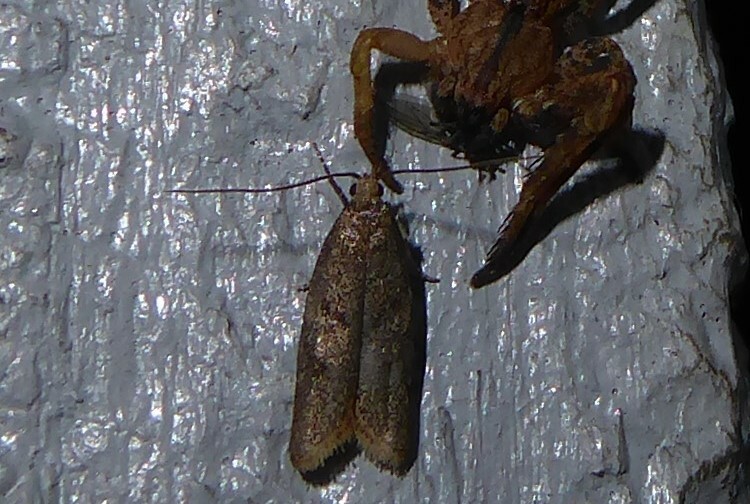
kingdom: Animalia
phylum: Arthropoda
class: Insecta
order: Lepidoptera
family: Oecophoridae
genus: Gymnobathra
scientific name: Gymnobathra tholodella
